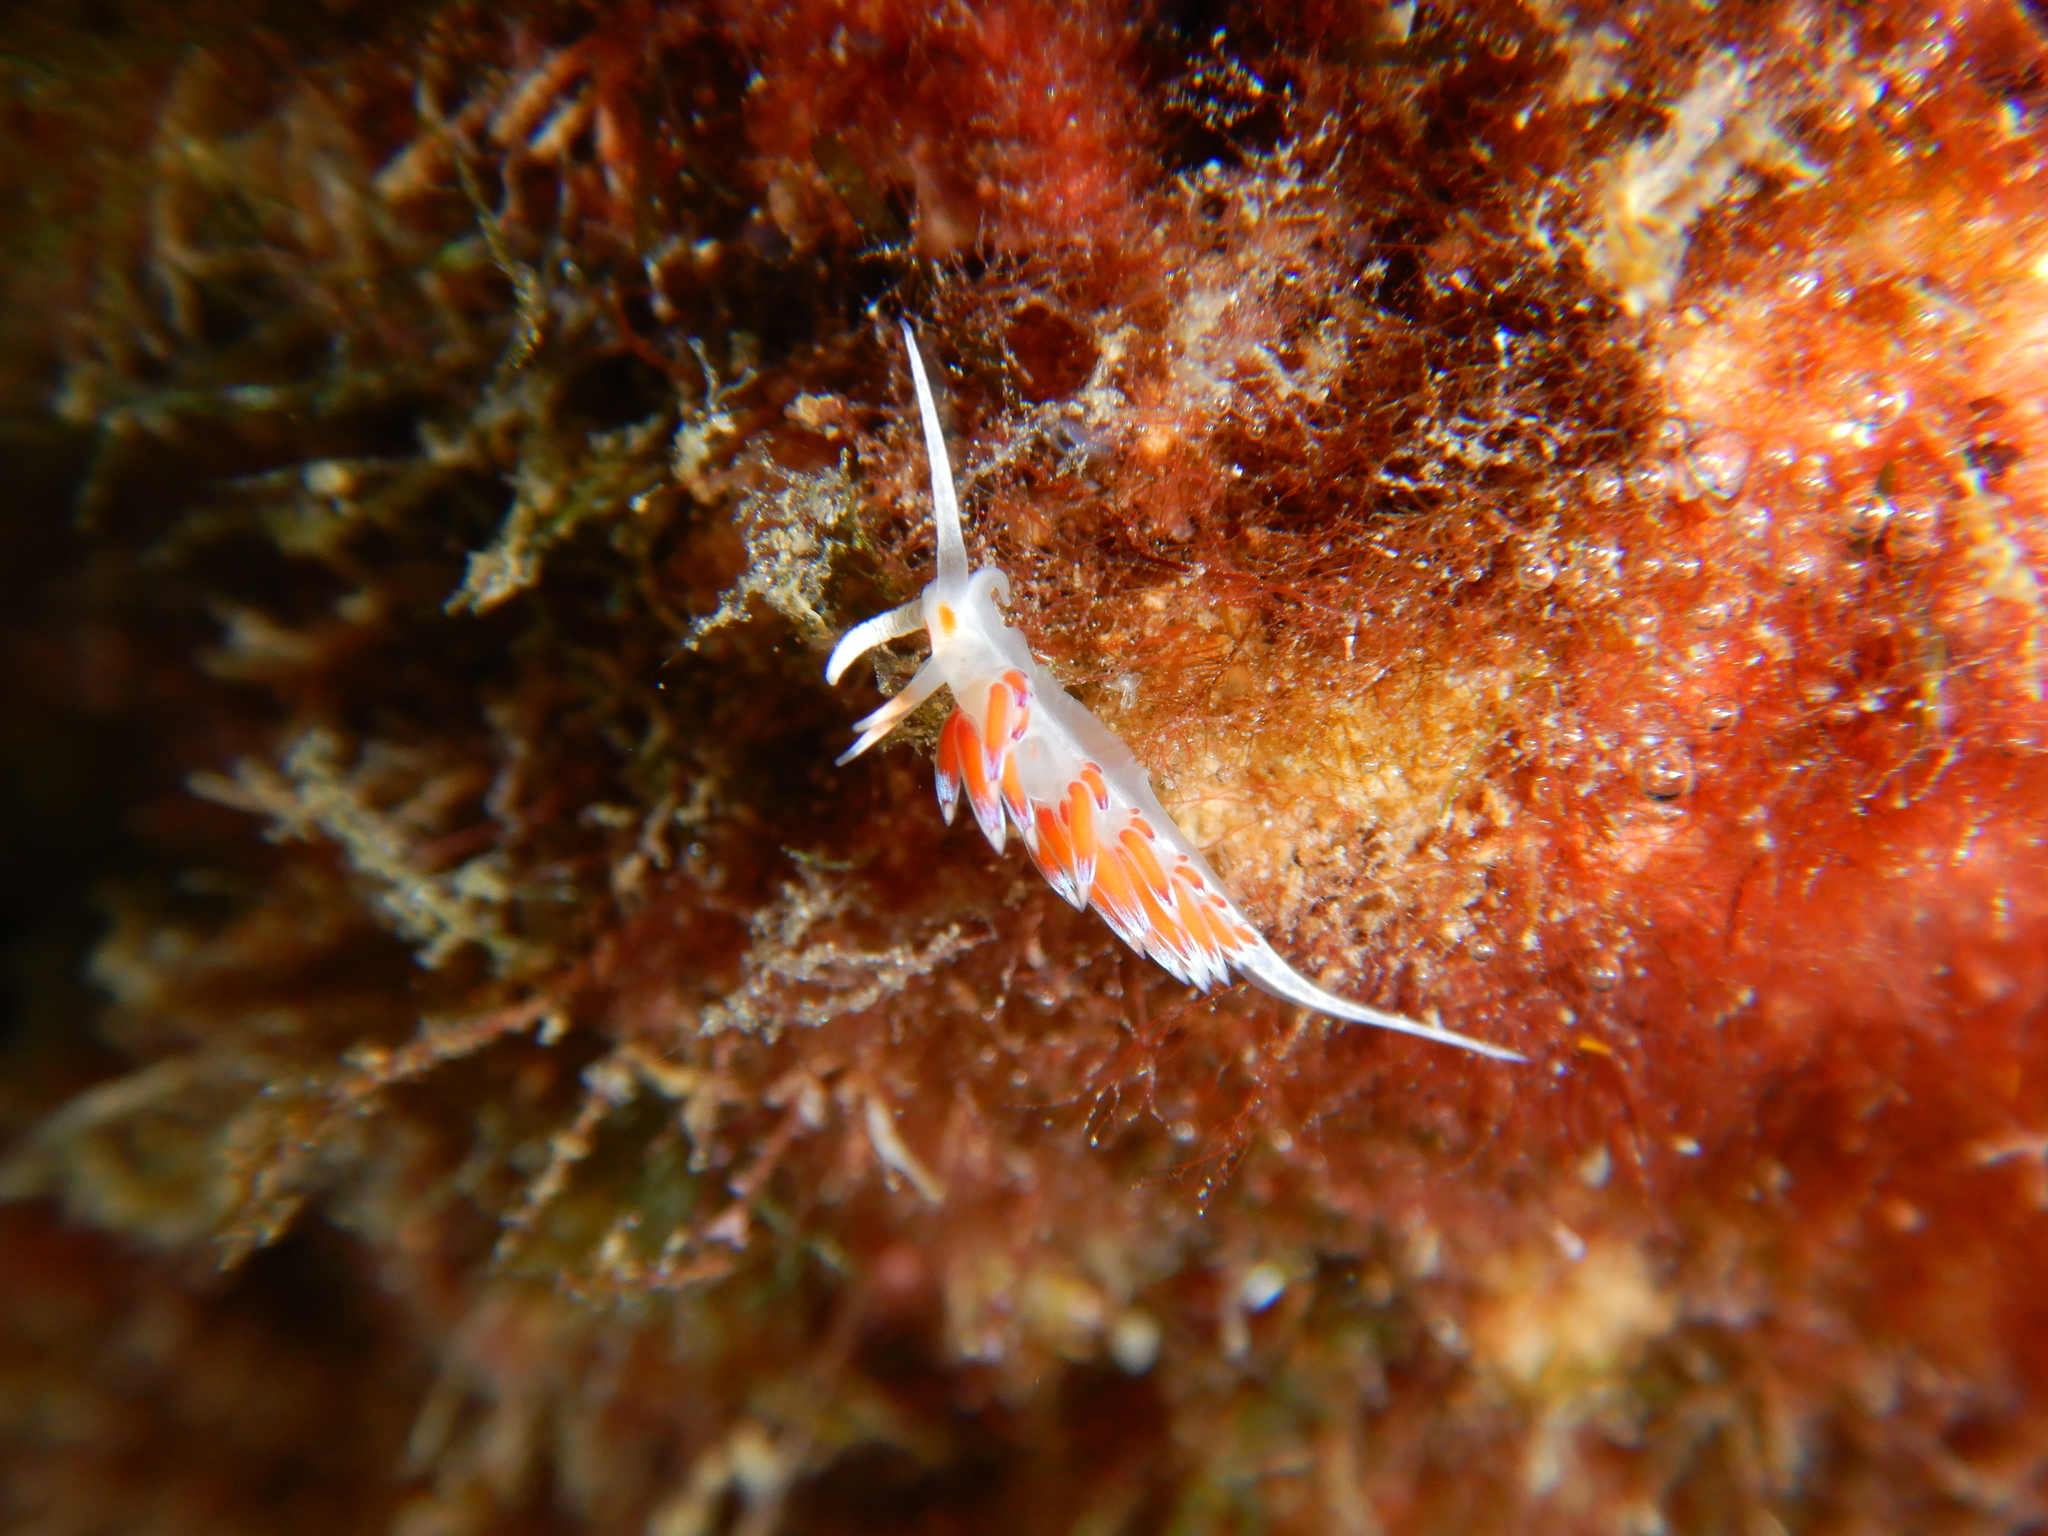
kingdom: Animalia
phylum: Mollusca
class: Gastropoda
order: Nudibranchia
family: Facelinidae
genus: Cratena
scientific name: Cratena peregrina
